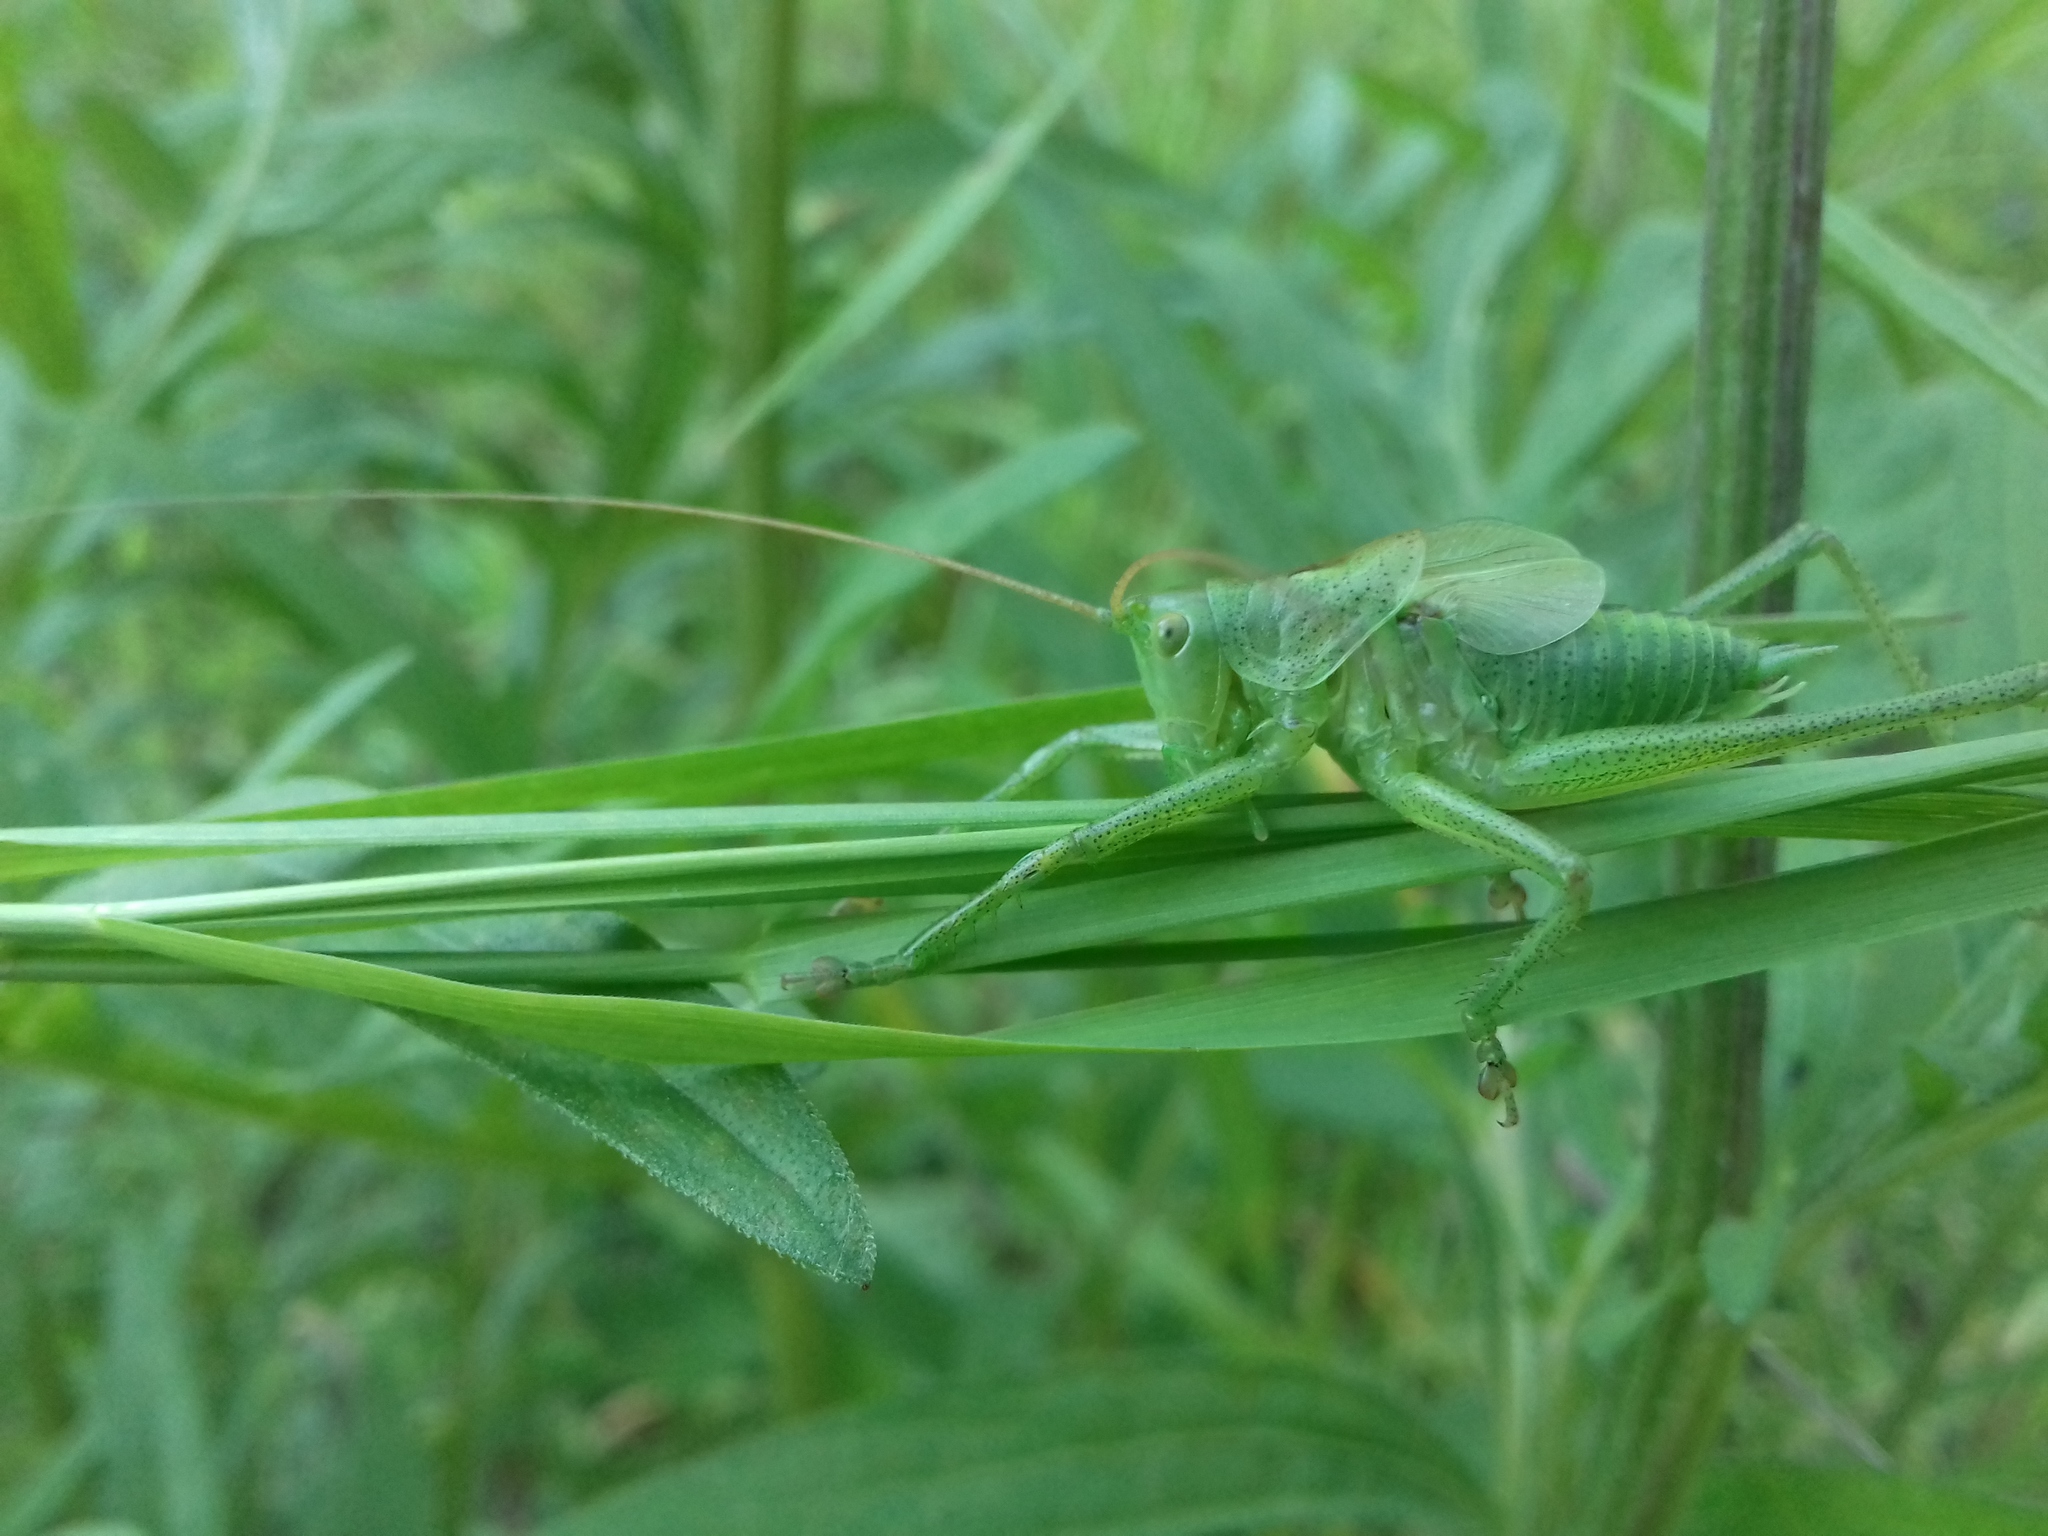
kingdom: Animalia
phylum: Arthropoda
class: Insecta
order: Orthoptera
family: Tettigoniidae
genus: Tettigonia
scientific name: Tettigonia cantans
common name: Upland green bush-cricket
